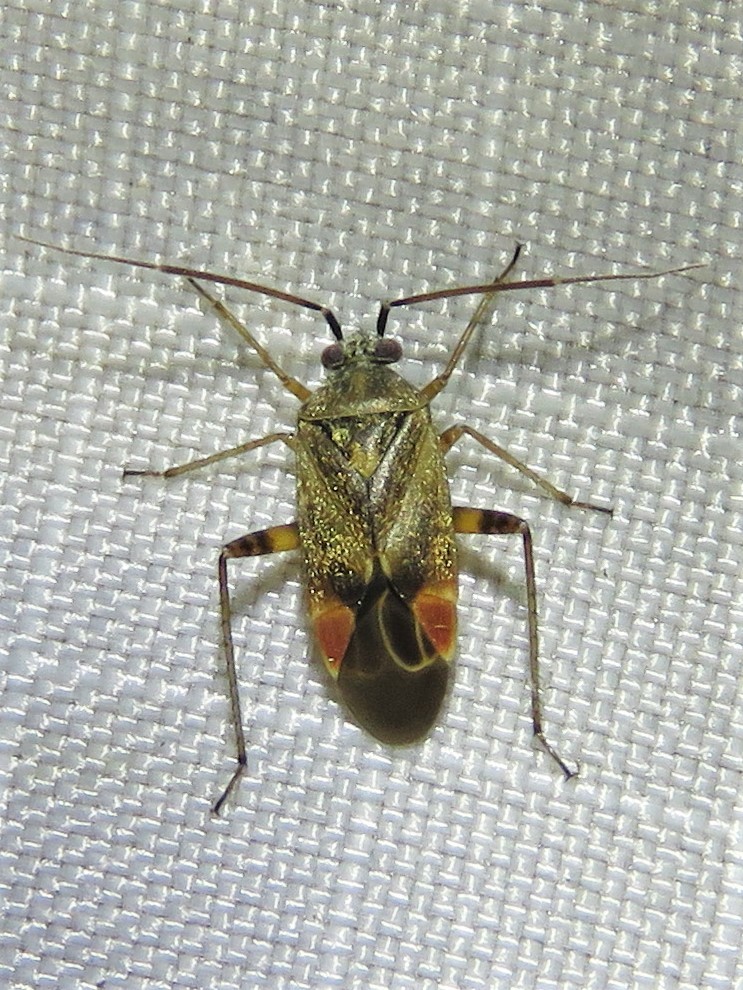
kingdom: Animalia
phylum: Arthropoda
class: Insecta
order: Hemiptera
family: Miridae
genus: Polymerus
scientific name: Polymerus basalis
